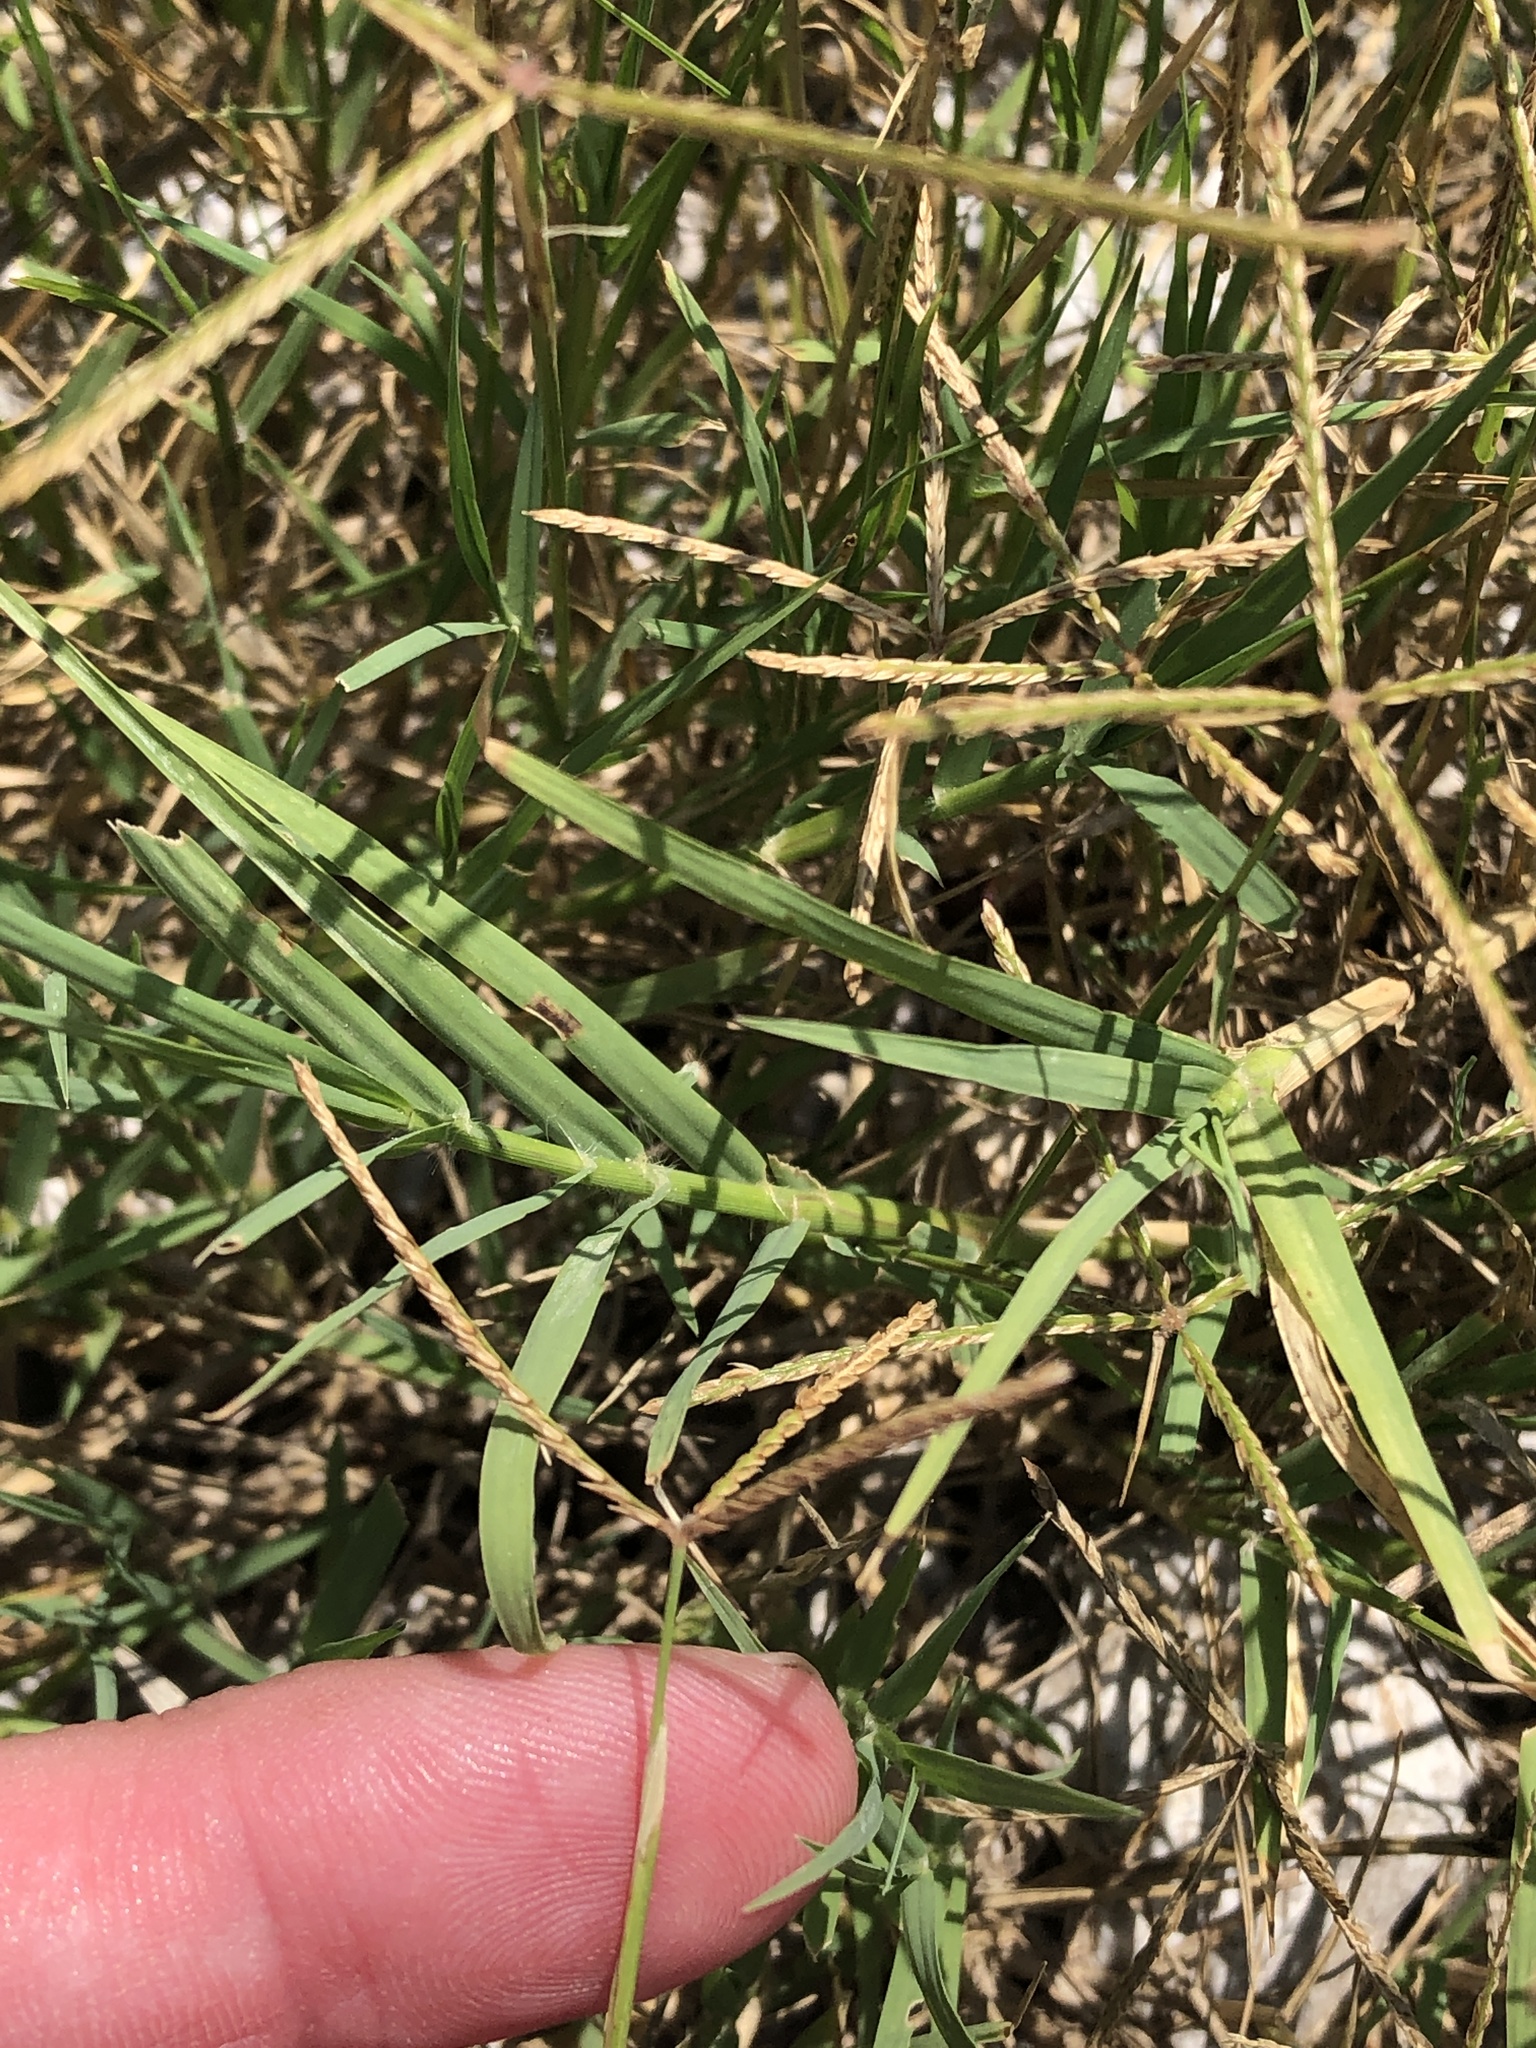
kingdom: Plantae
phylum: Tracheophyta
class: Liliopsida
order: Poales
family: Poaceae
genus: Cynodon
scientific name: Cynodon dactylon
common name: Bermuda grass
